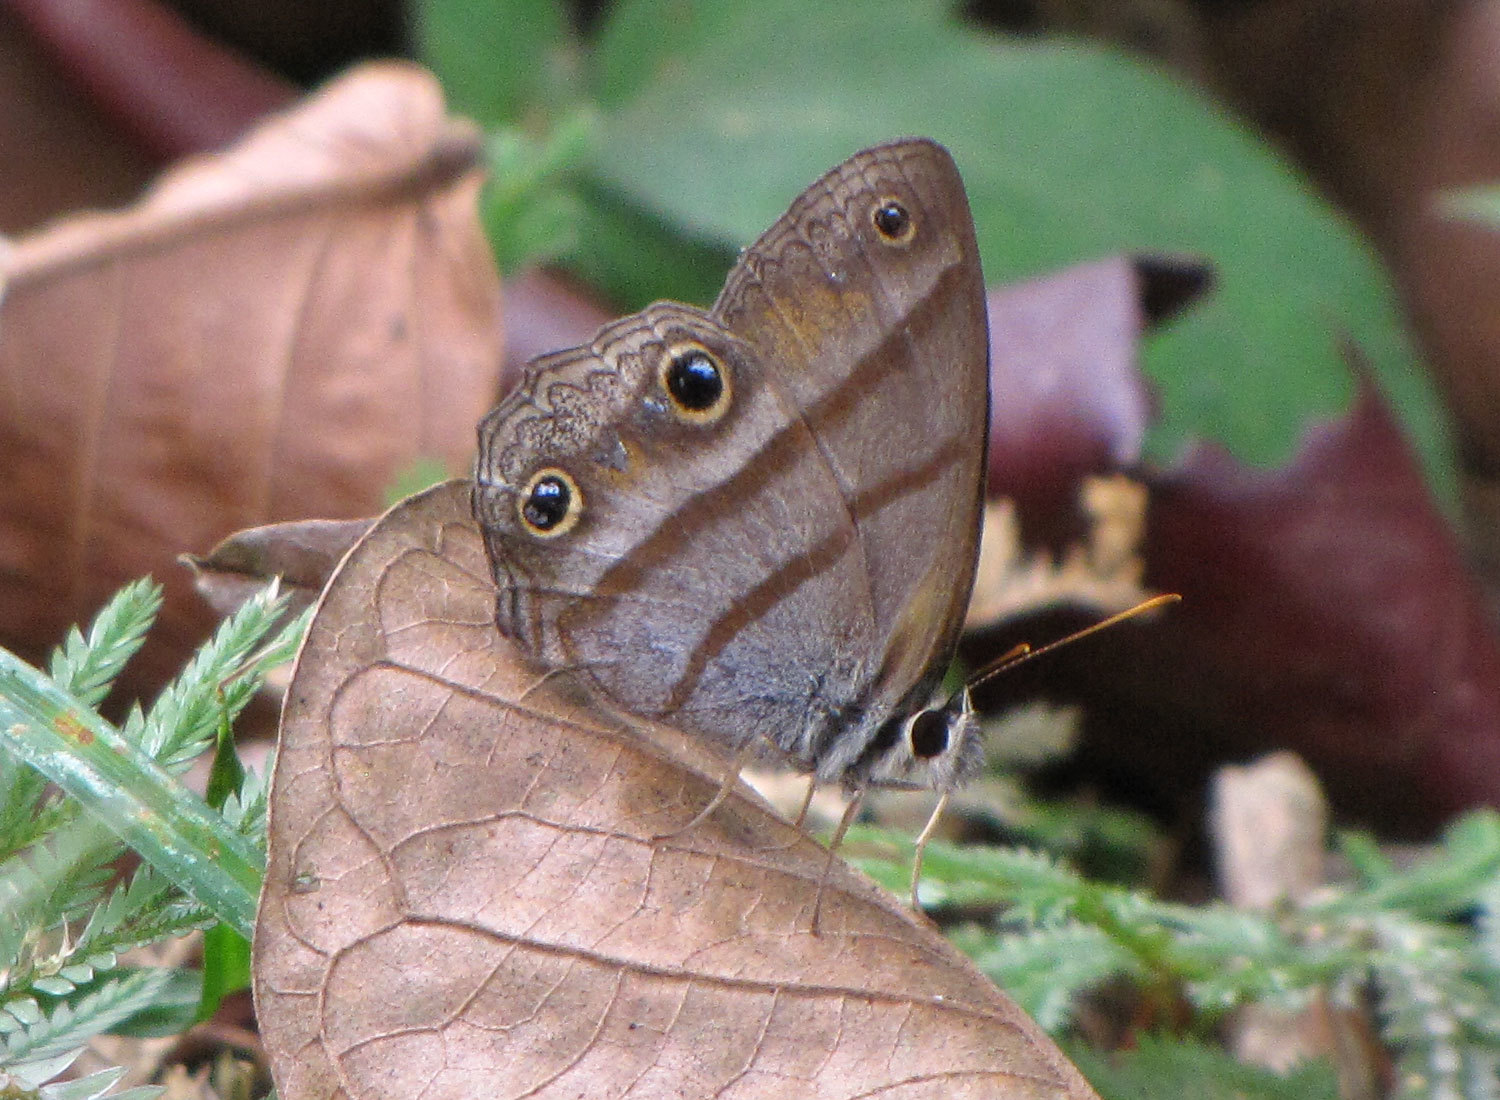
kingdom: Animalia
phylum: Arthropoda
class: Insecta
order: Lepidoptera
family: Nymphalidae
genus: Argyreuptychia
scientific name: Argyreuptychia penelope
